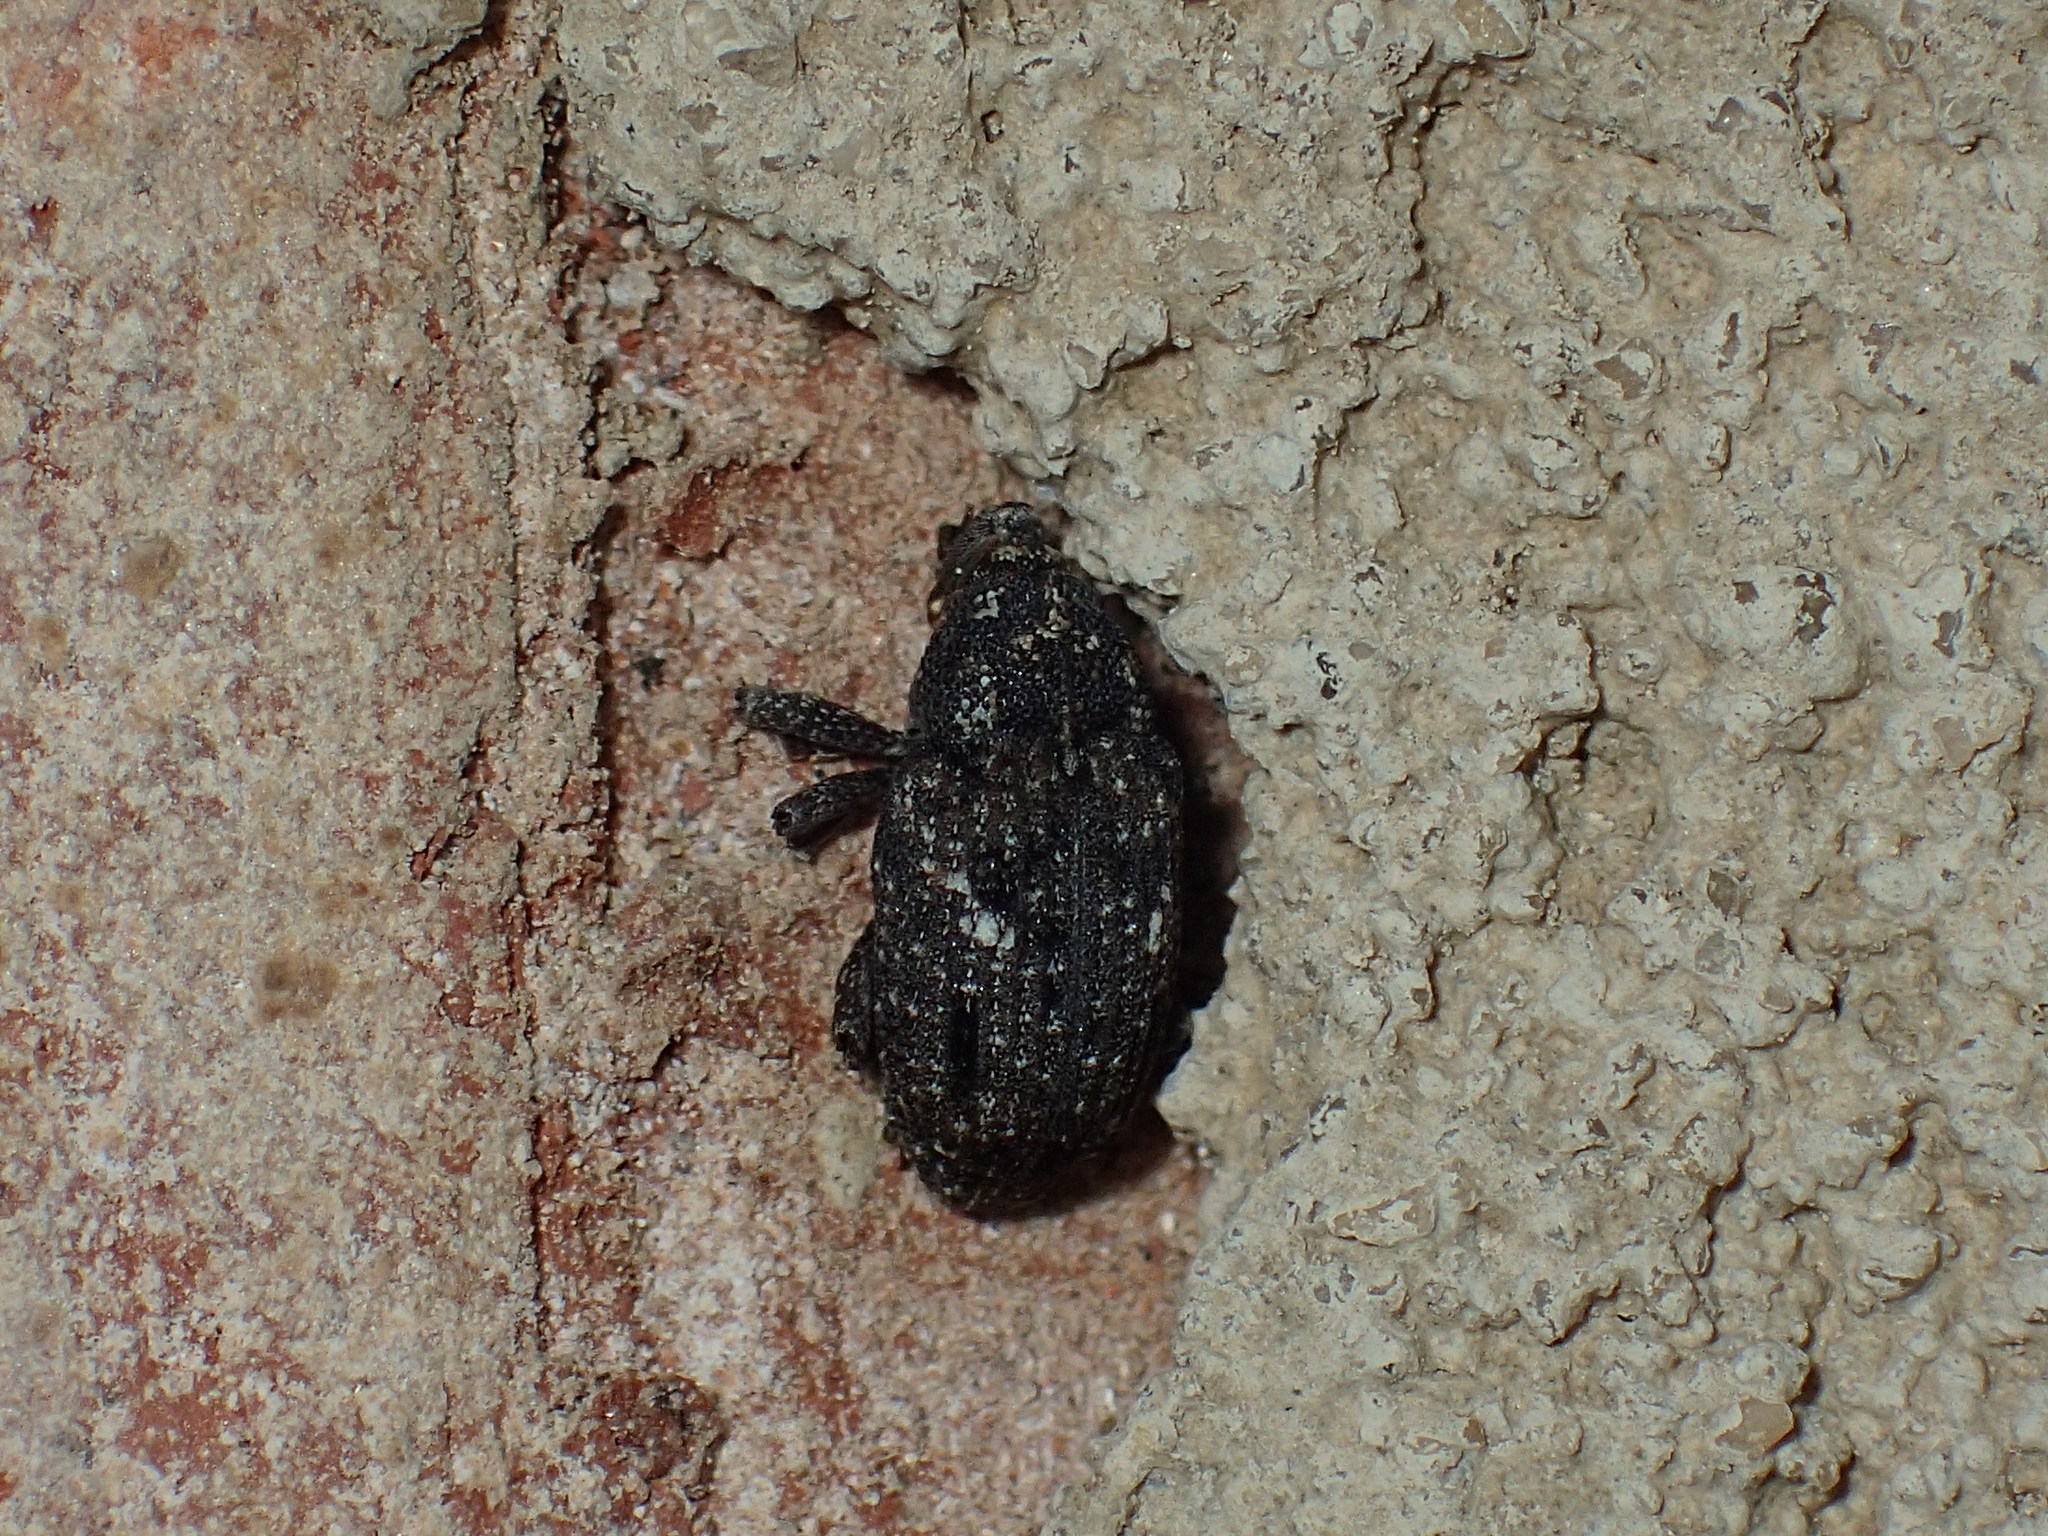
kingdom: Animalia
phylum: Arthropoda
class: Insecta
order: Coleoptera
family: Curculionidae
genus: Cophes
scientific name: Cophes oblongus
